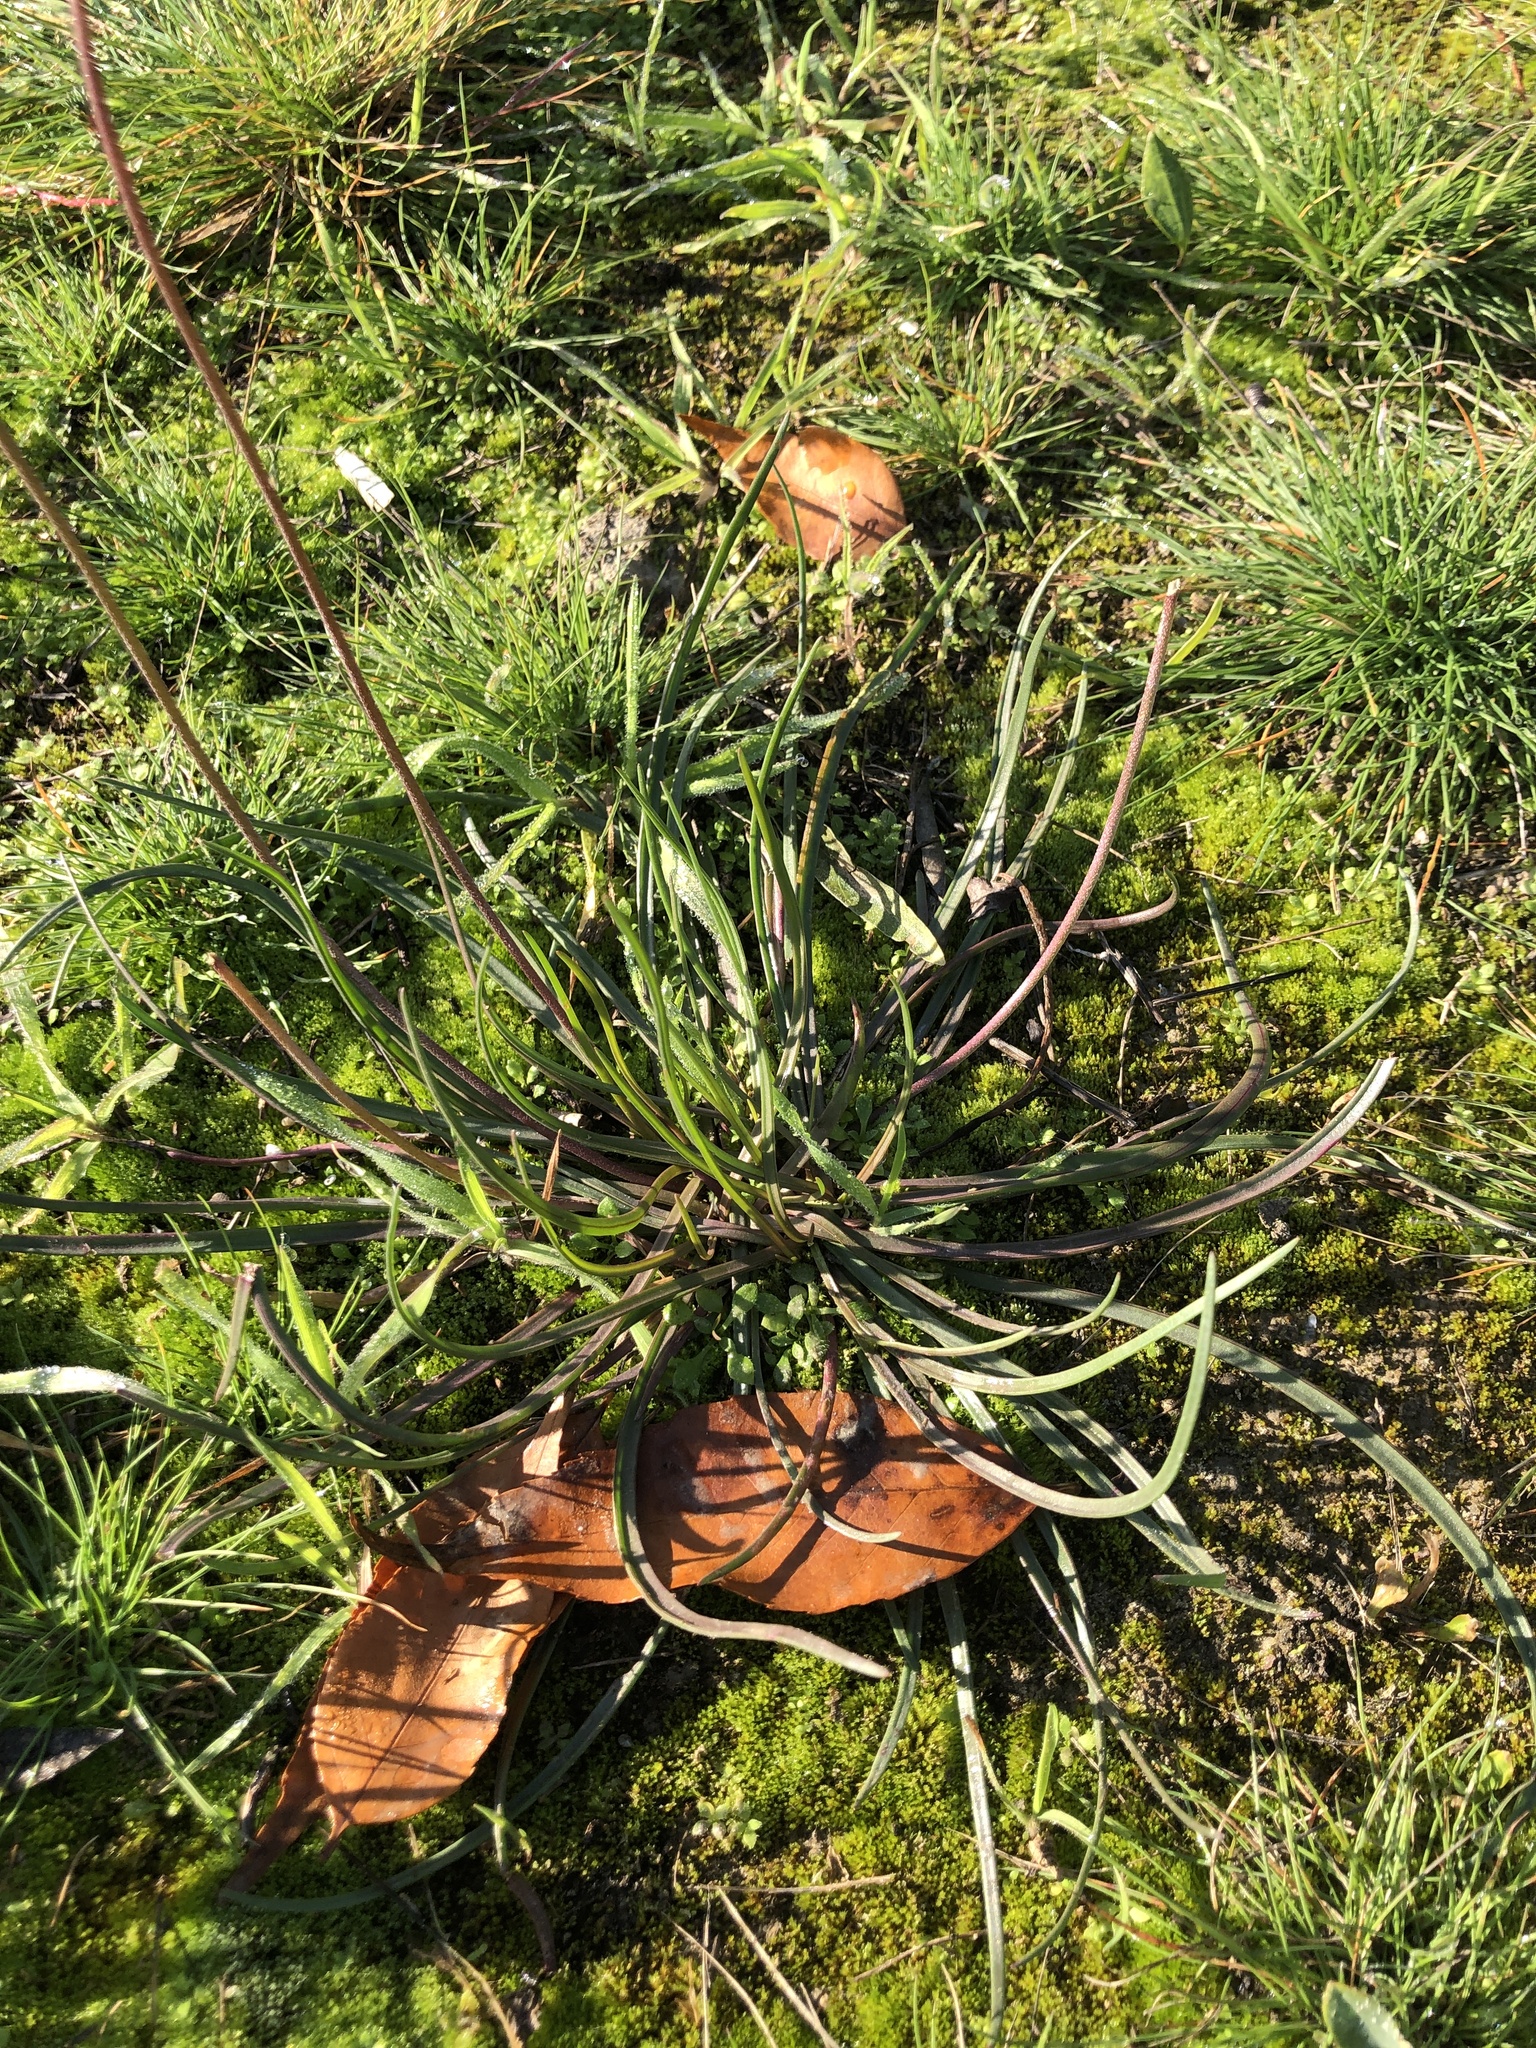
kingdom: Plantae
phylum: Tracheophyta
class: Magnoliopsida
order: Lamiales
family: Plantaginaceae
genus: Plantago
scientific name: Plantago maritima
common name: Sea plantain
